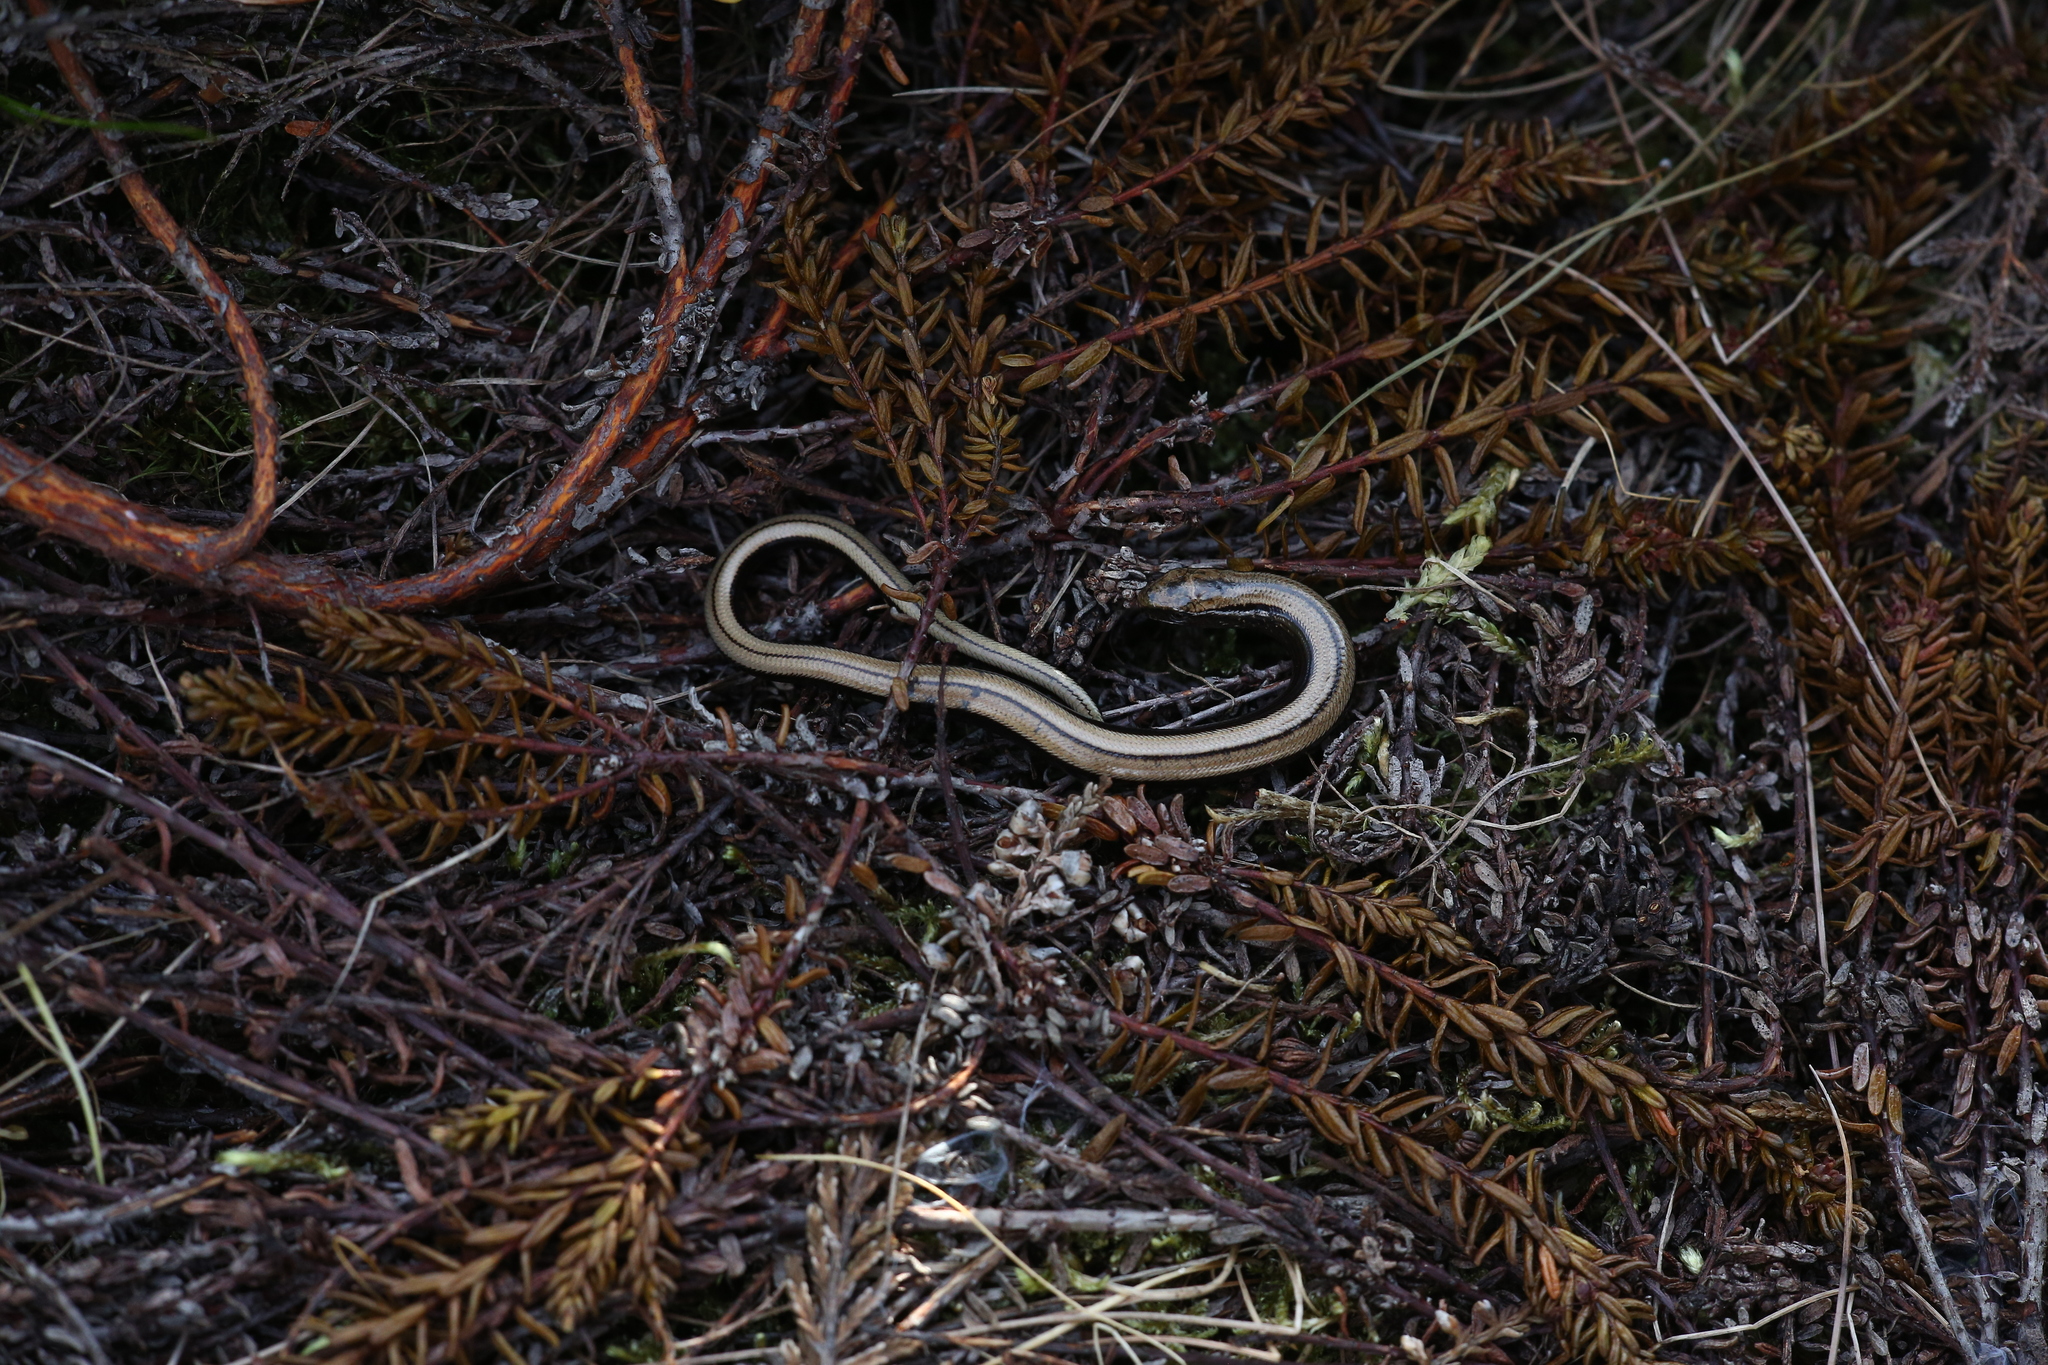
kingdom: Animalia
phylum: Chordata
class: Squamata
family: Anguidae
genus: Anguis
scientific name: Anguis fragilis
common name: Slow worm
